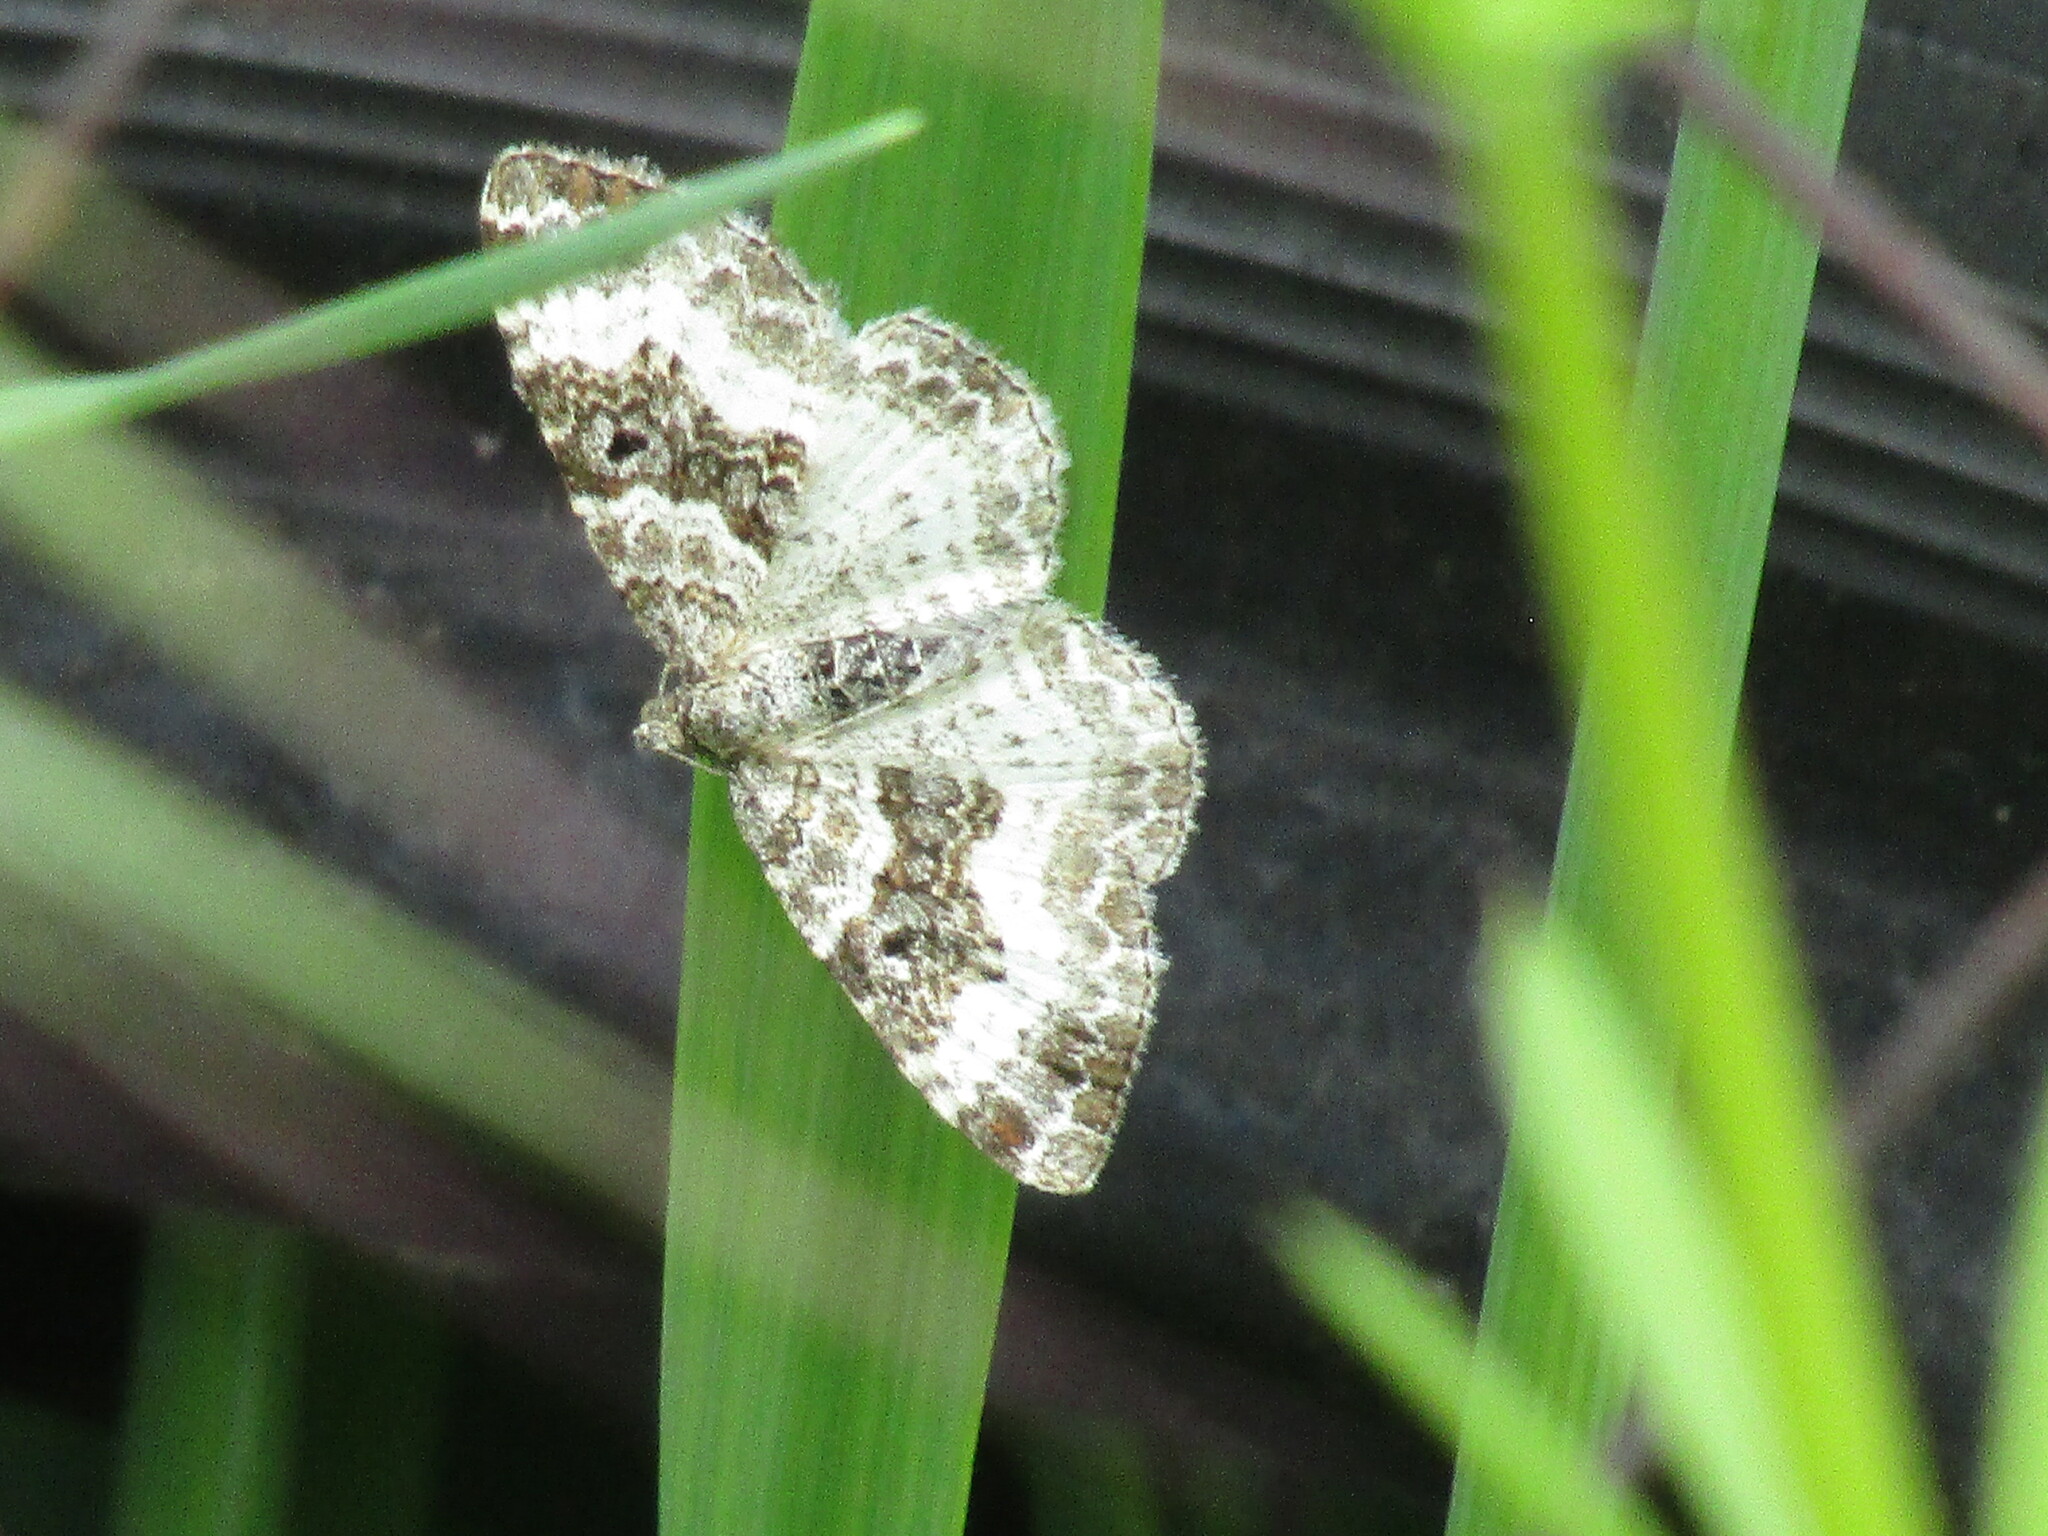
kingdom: Animalia
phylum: Arthropoda
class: Insecta
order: Lepidoptera
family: Geometridae
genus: Epirrhoe
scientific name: Epirrhoe alternata
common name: Common carpet
